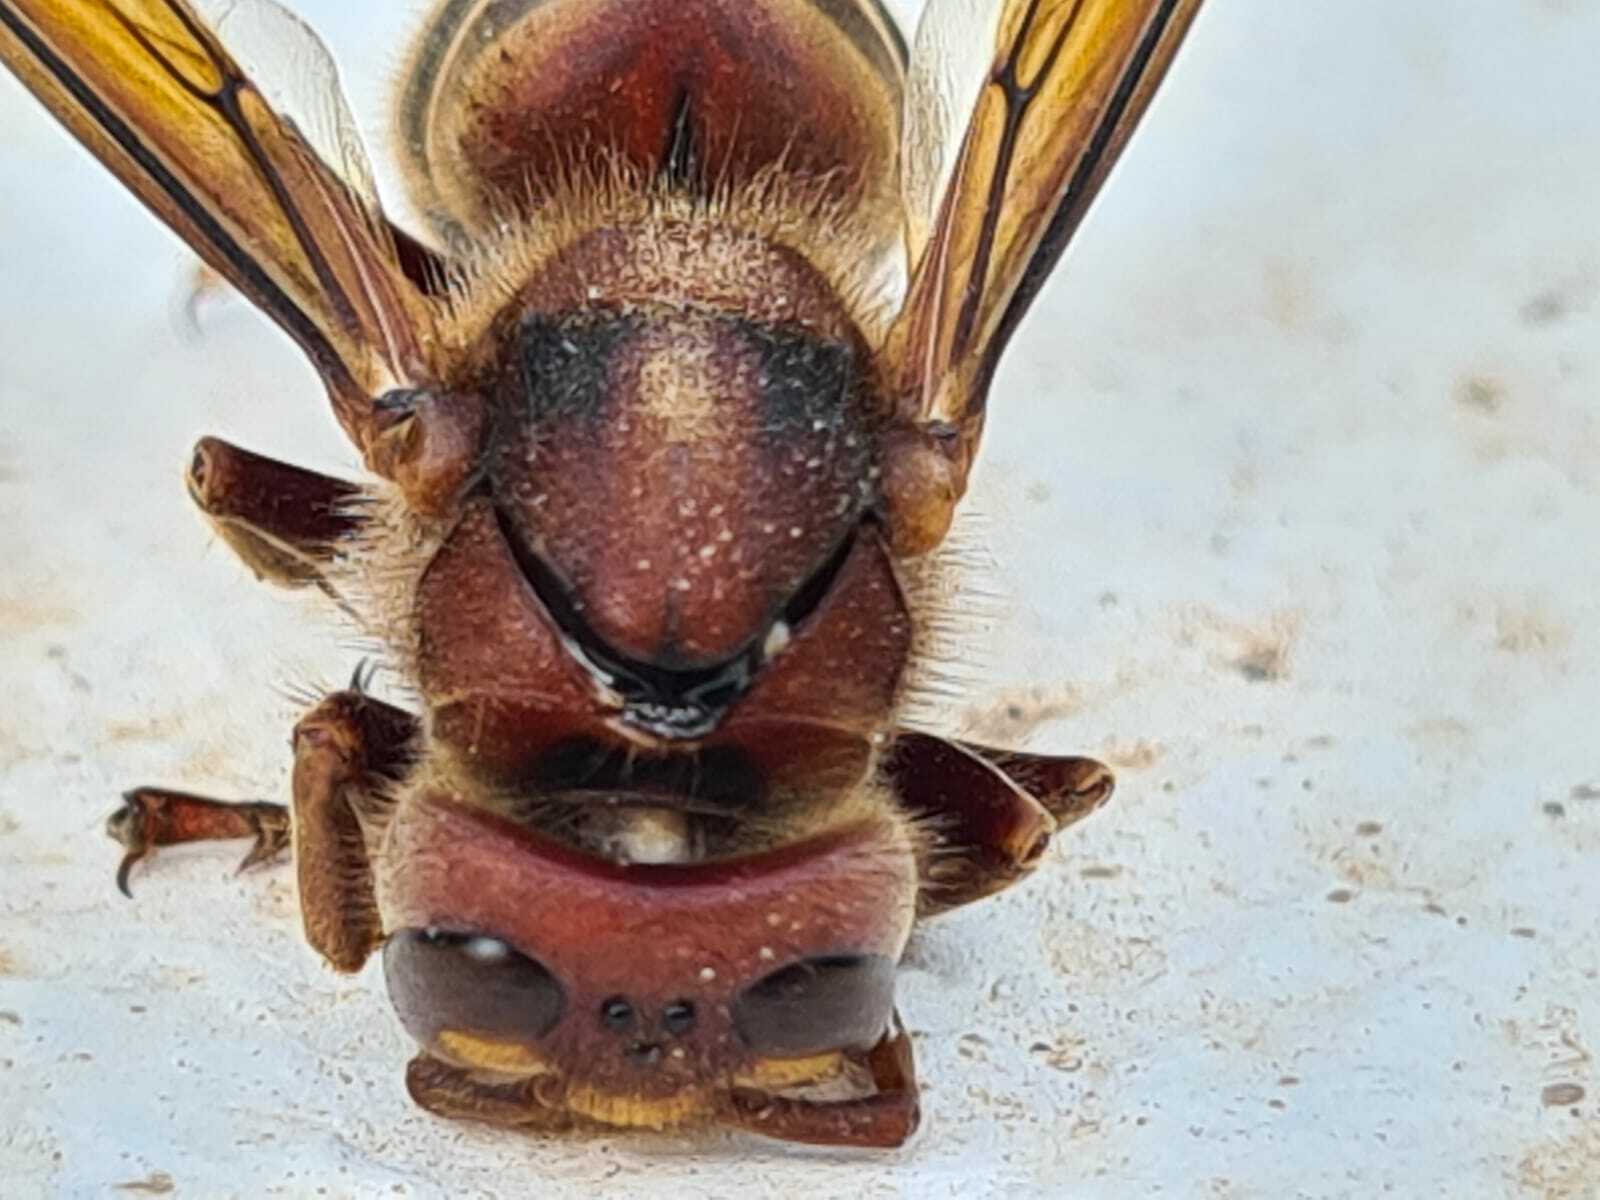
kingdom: Animalia
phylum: Arthropoda
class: Insecta
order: Hymenoptera
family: Vespidae
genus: Vespa
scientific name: Vespa crabro
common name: Hornet
